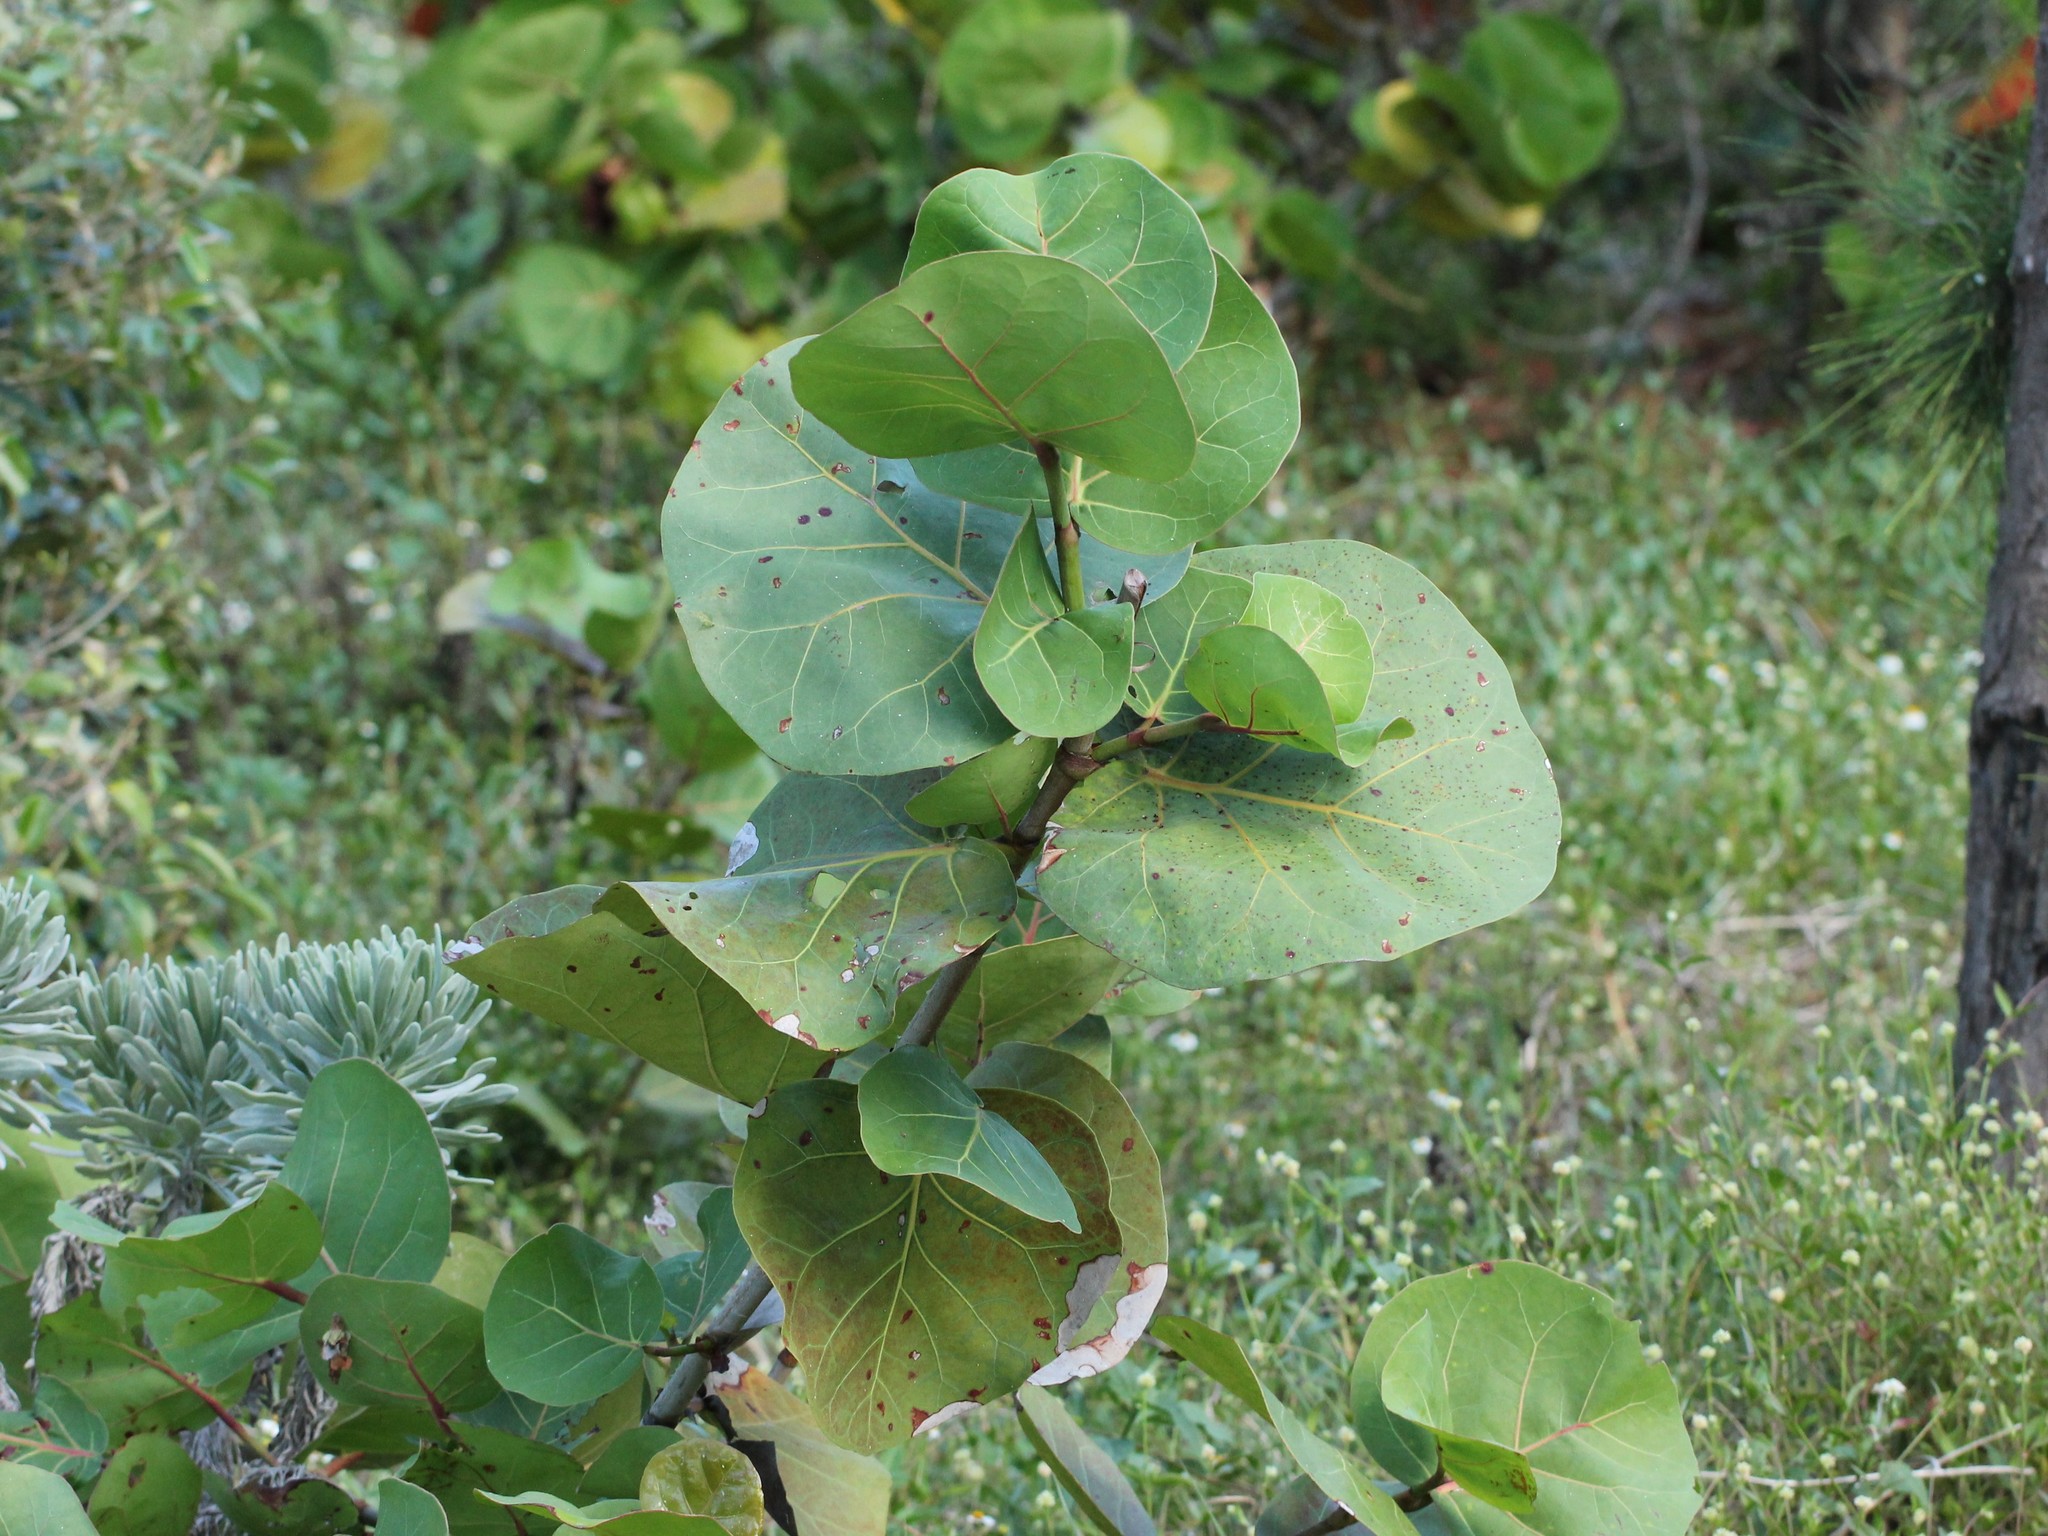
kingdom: Plantae
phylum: Tracheophyta
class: Magnoliopsida
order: Caryophyllales
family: Polygonaceae
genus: Coccoloba
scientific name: Coccoloba uvifera
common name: Seagrape
